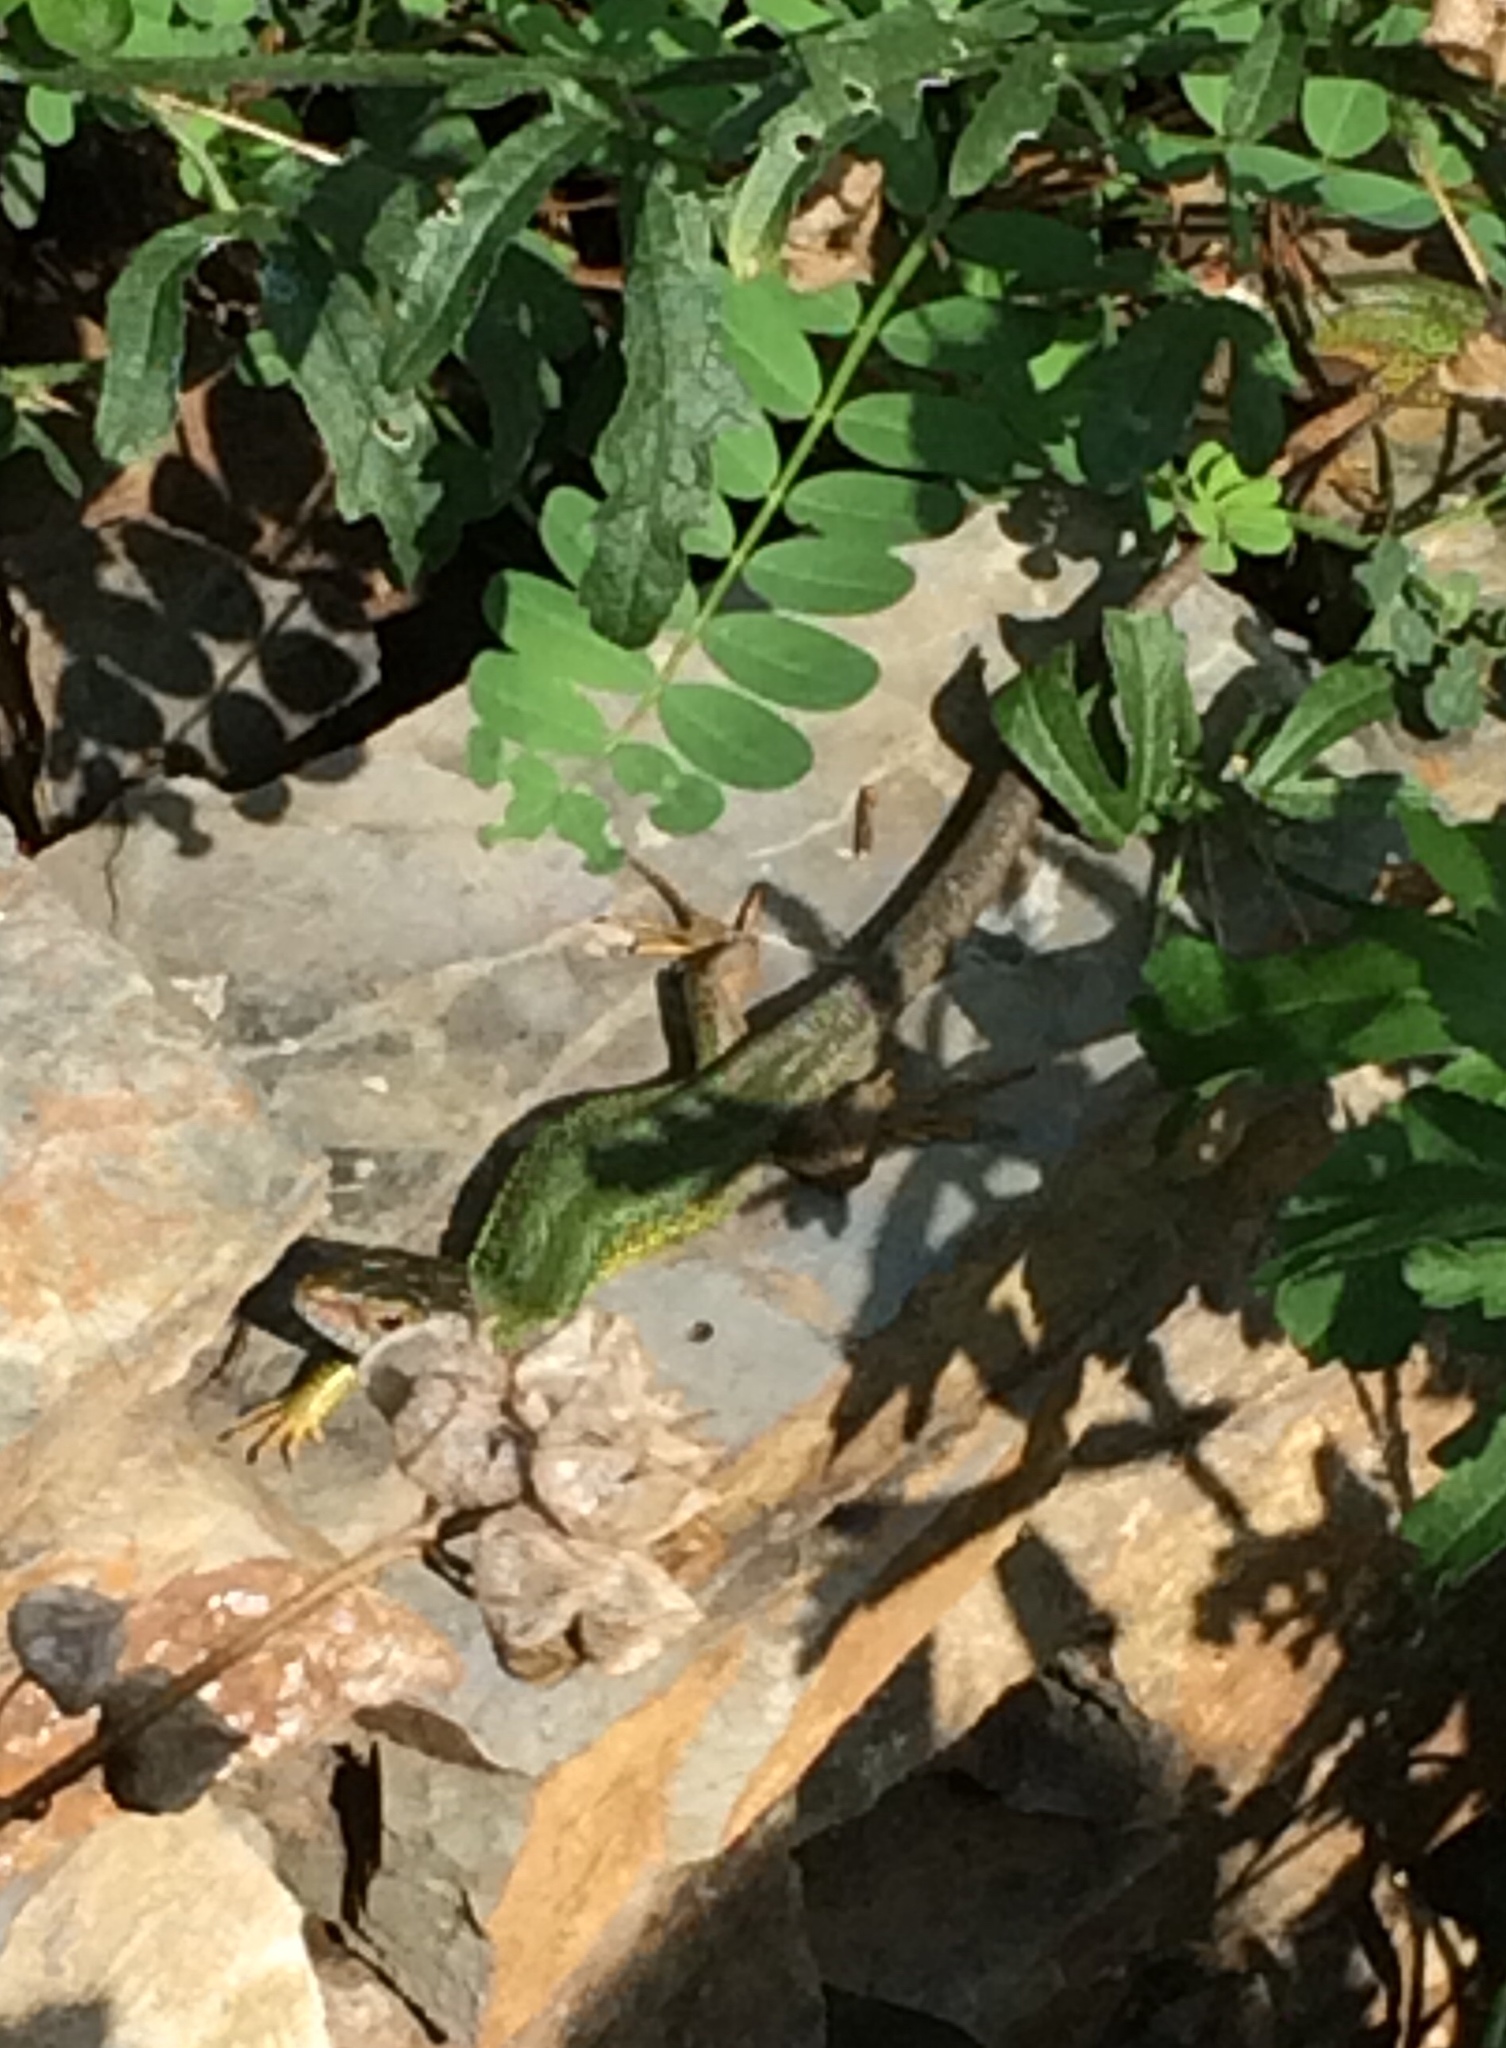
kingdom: Animalia
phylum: Chordata
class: Squamata
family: Lacertidae
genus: Lacerta
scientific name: Lacerta viridis
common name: European green lizard
